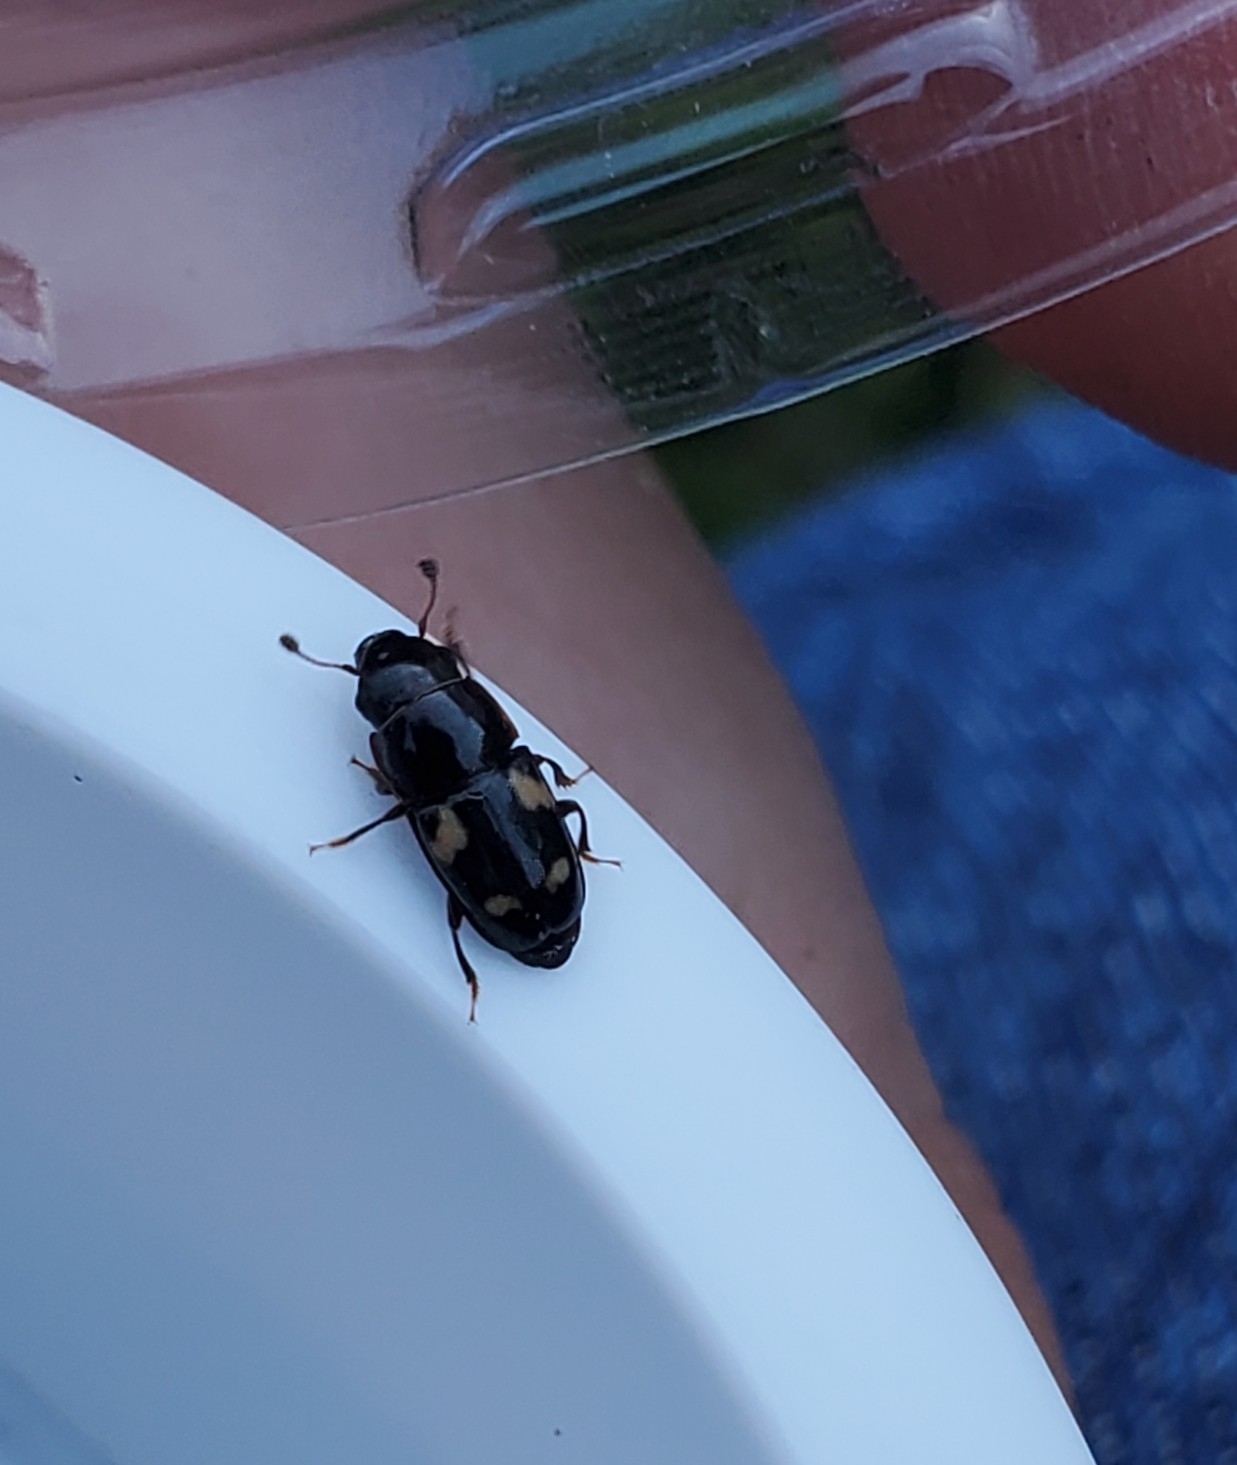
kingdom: Animalia
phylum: Arthropoda
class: Insecta
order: Coleoptera
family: Nitidulidae
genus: Glischrochilus
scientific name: Glischrochilus quadrisignatus
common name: Picnic beetle
